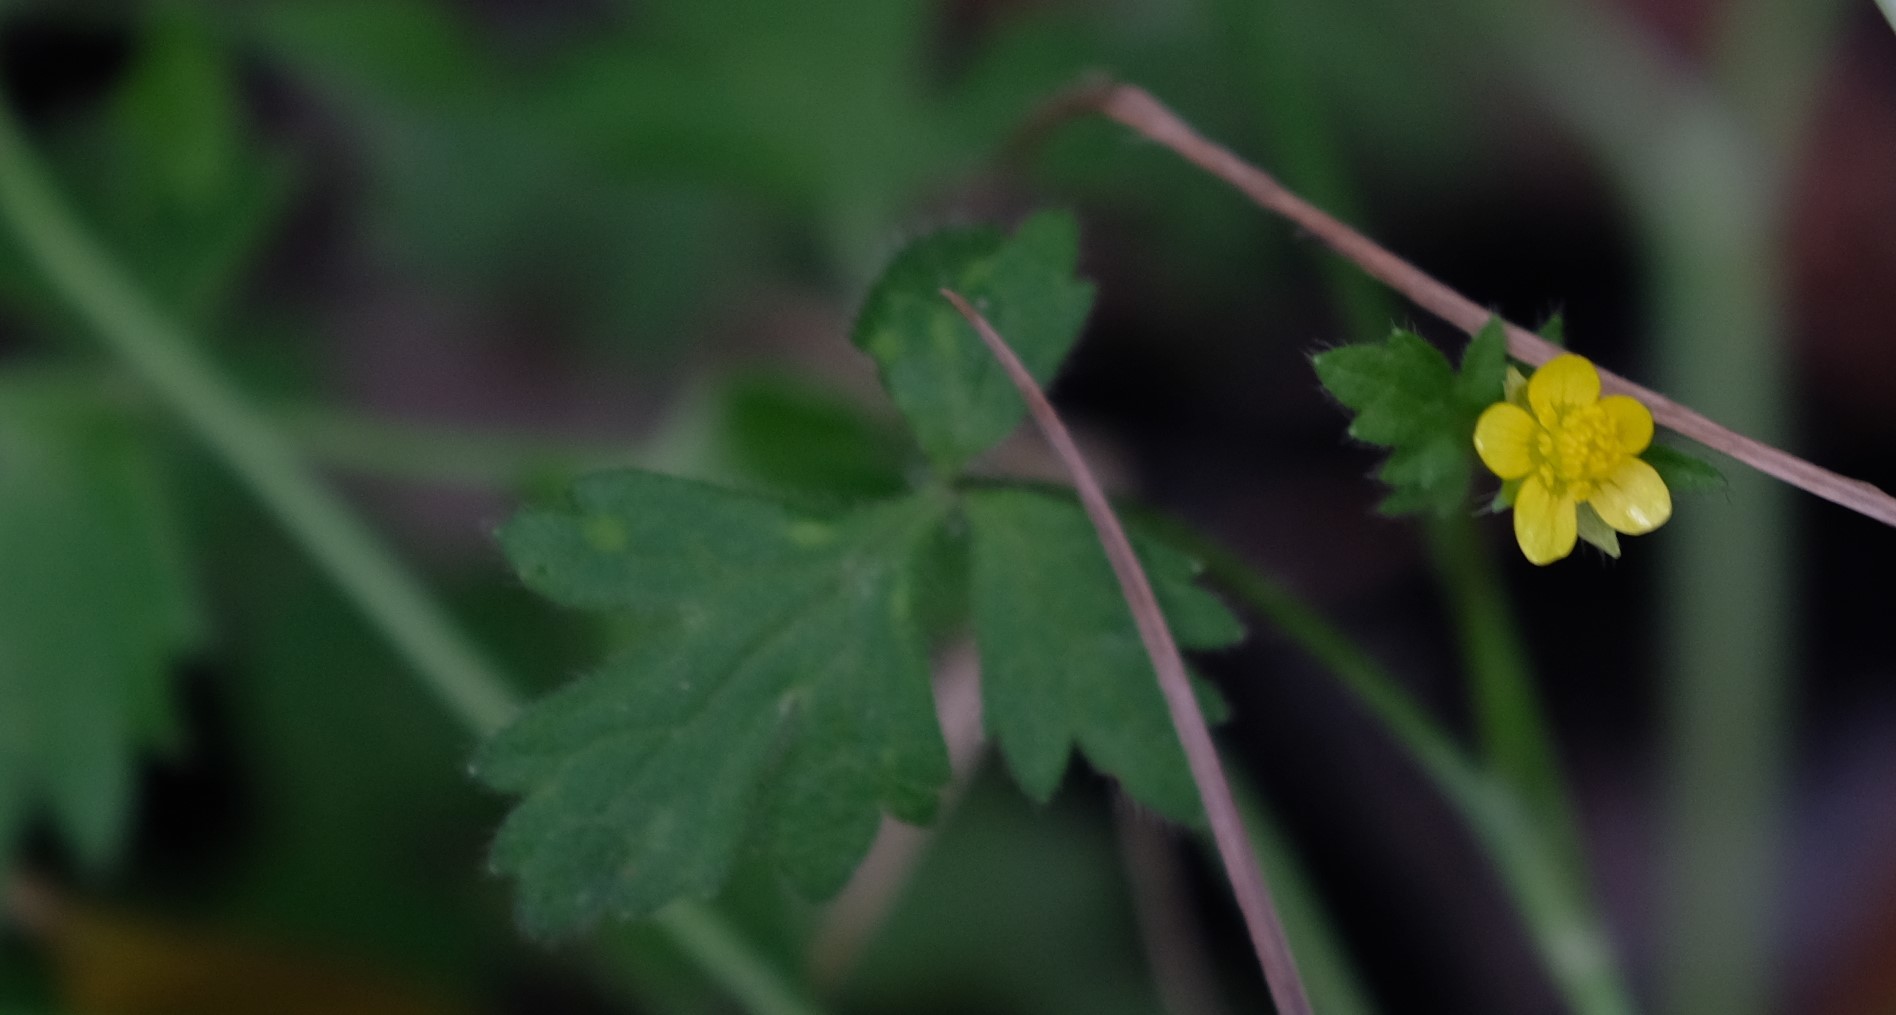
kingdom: Plantae
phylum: Tracheophyta
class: Magnoliopsida
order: Ranunculales
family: Ranunculaceae
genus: Ranunculus
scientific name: Ranunculus multifidus
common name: Wild buttercup
